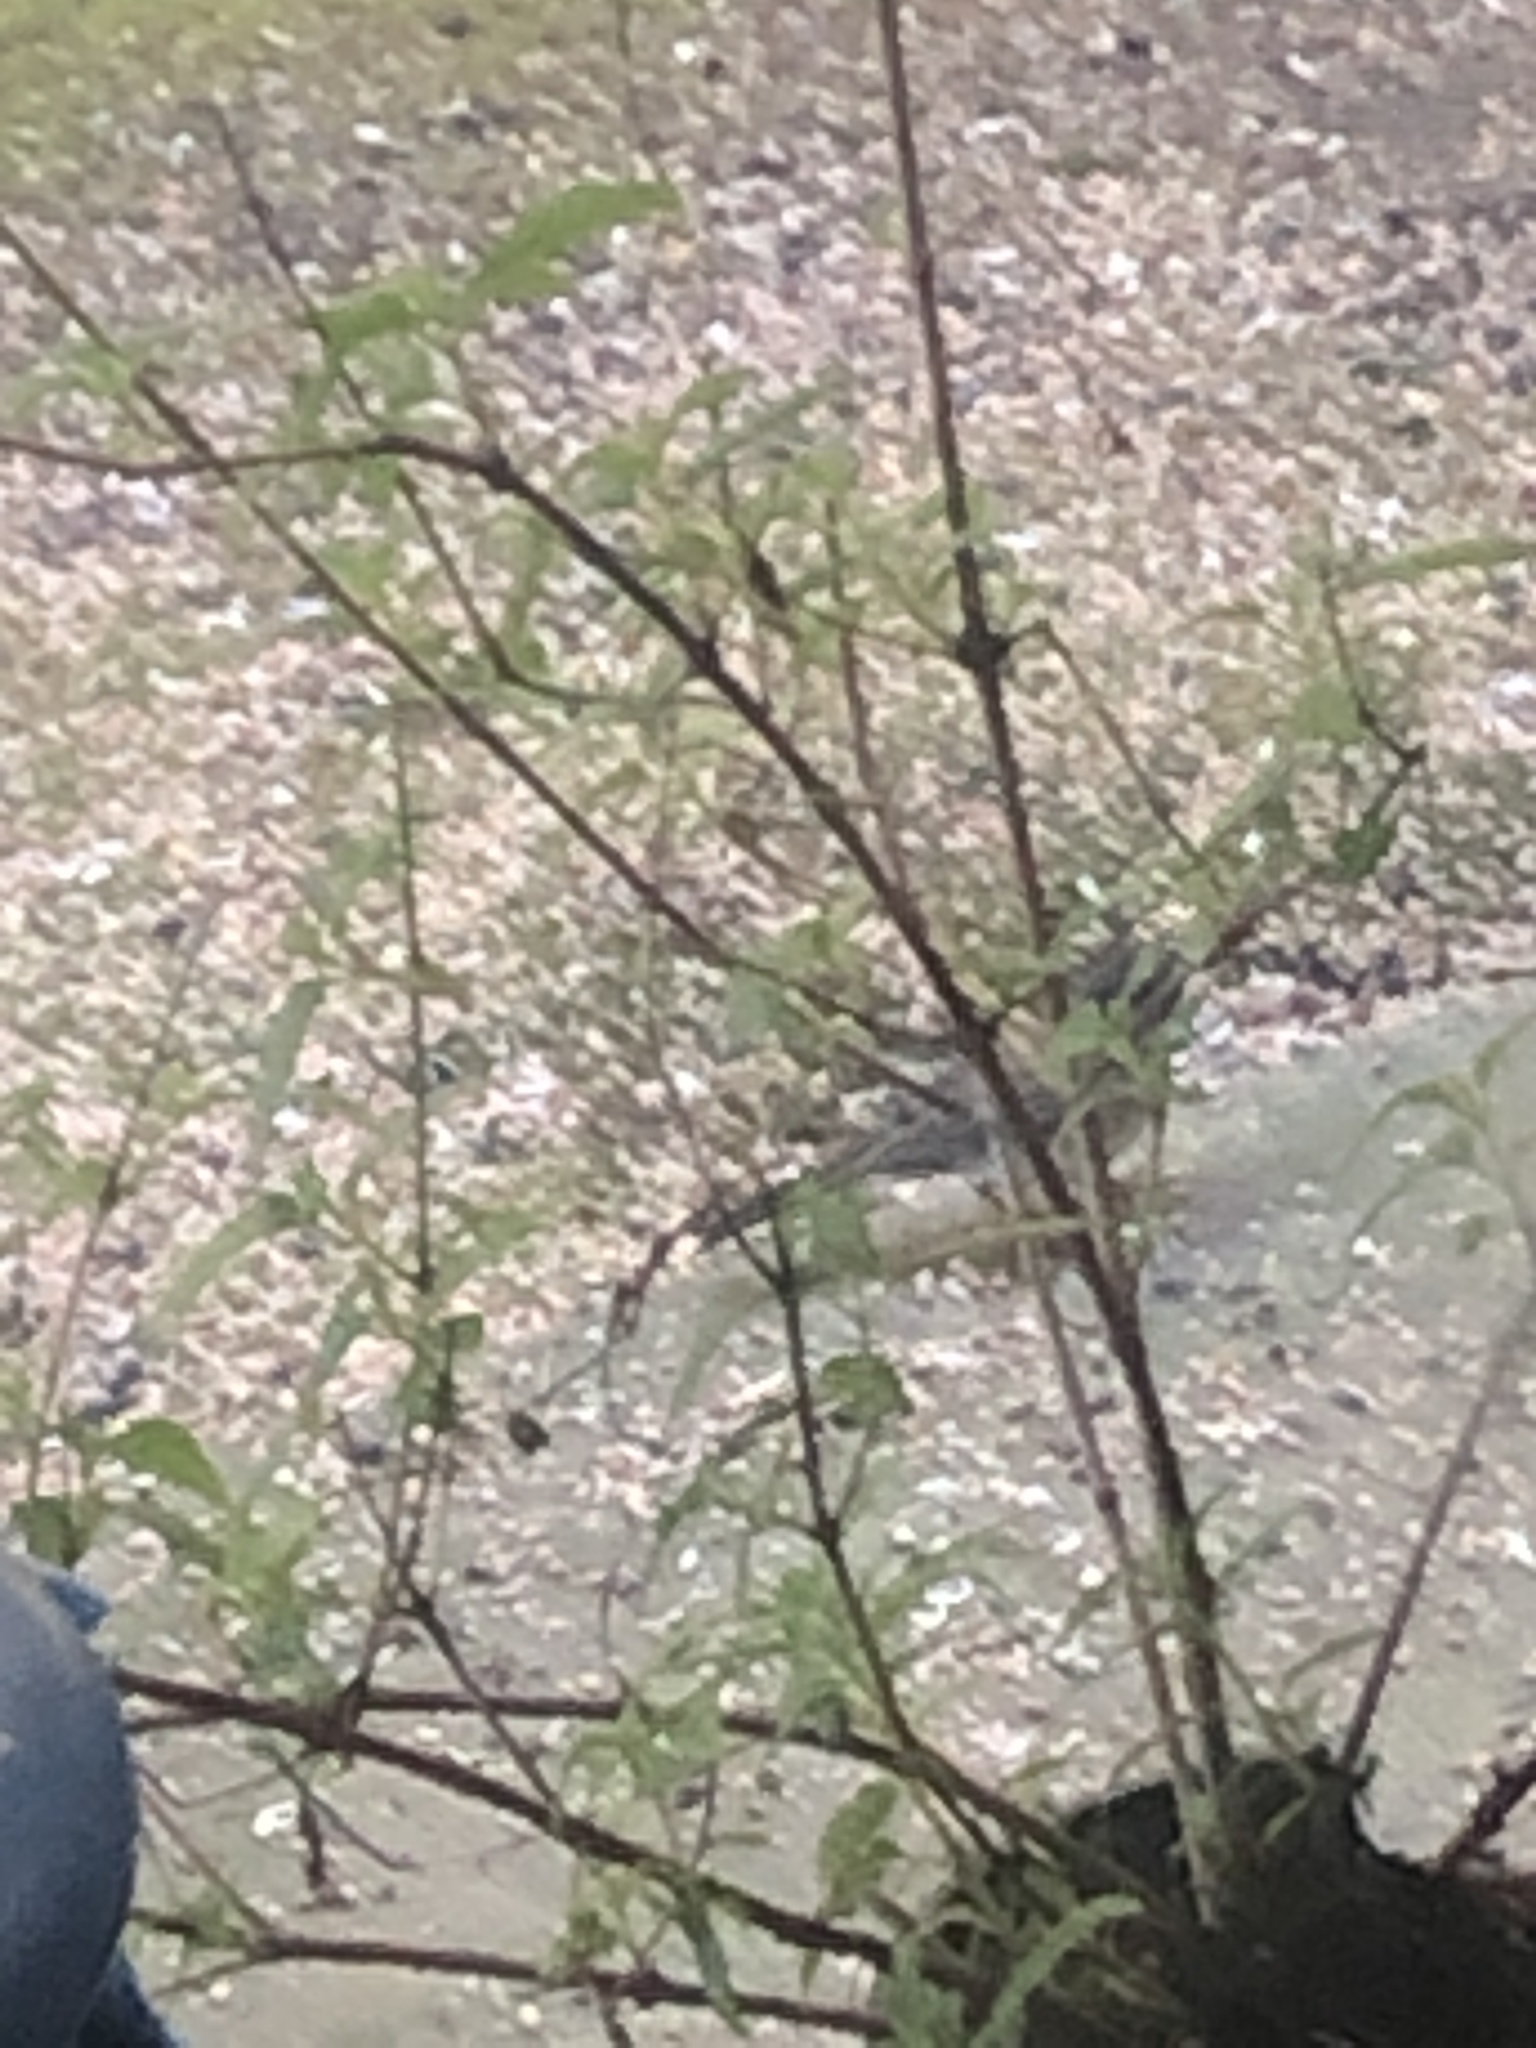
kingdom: Animalia
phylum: Chordata
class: Aves
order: Passeriformes
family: Passerellidae
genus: Junco
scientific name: Junco hyemalis
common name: Dark-eyed junco
